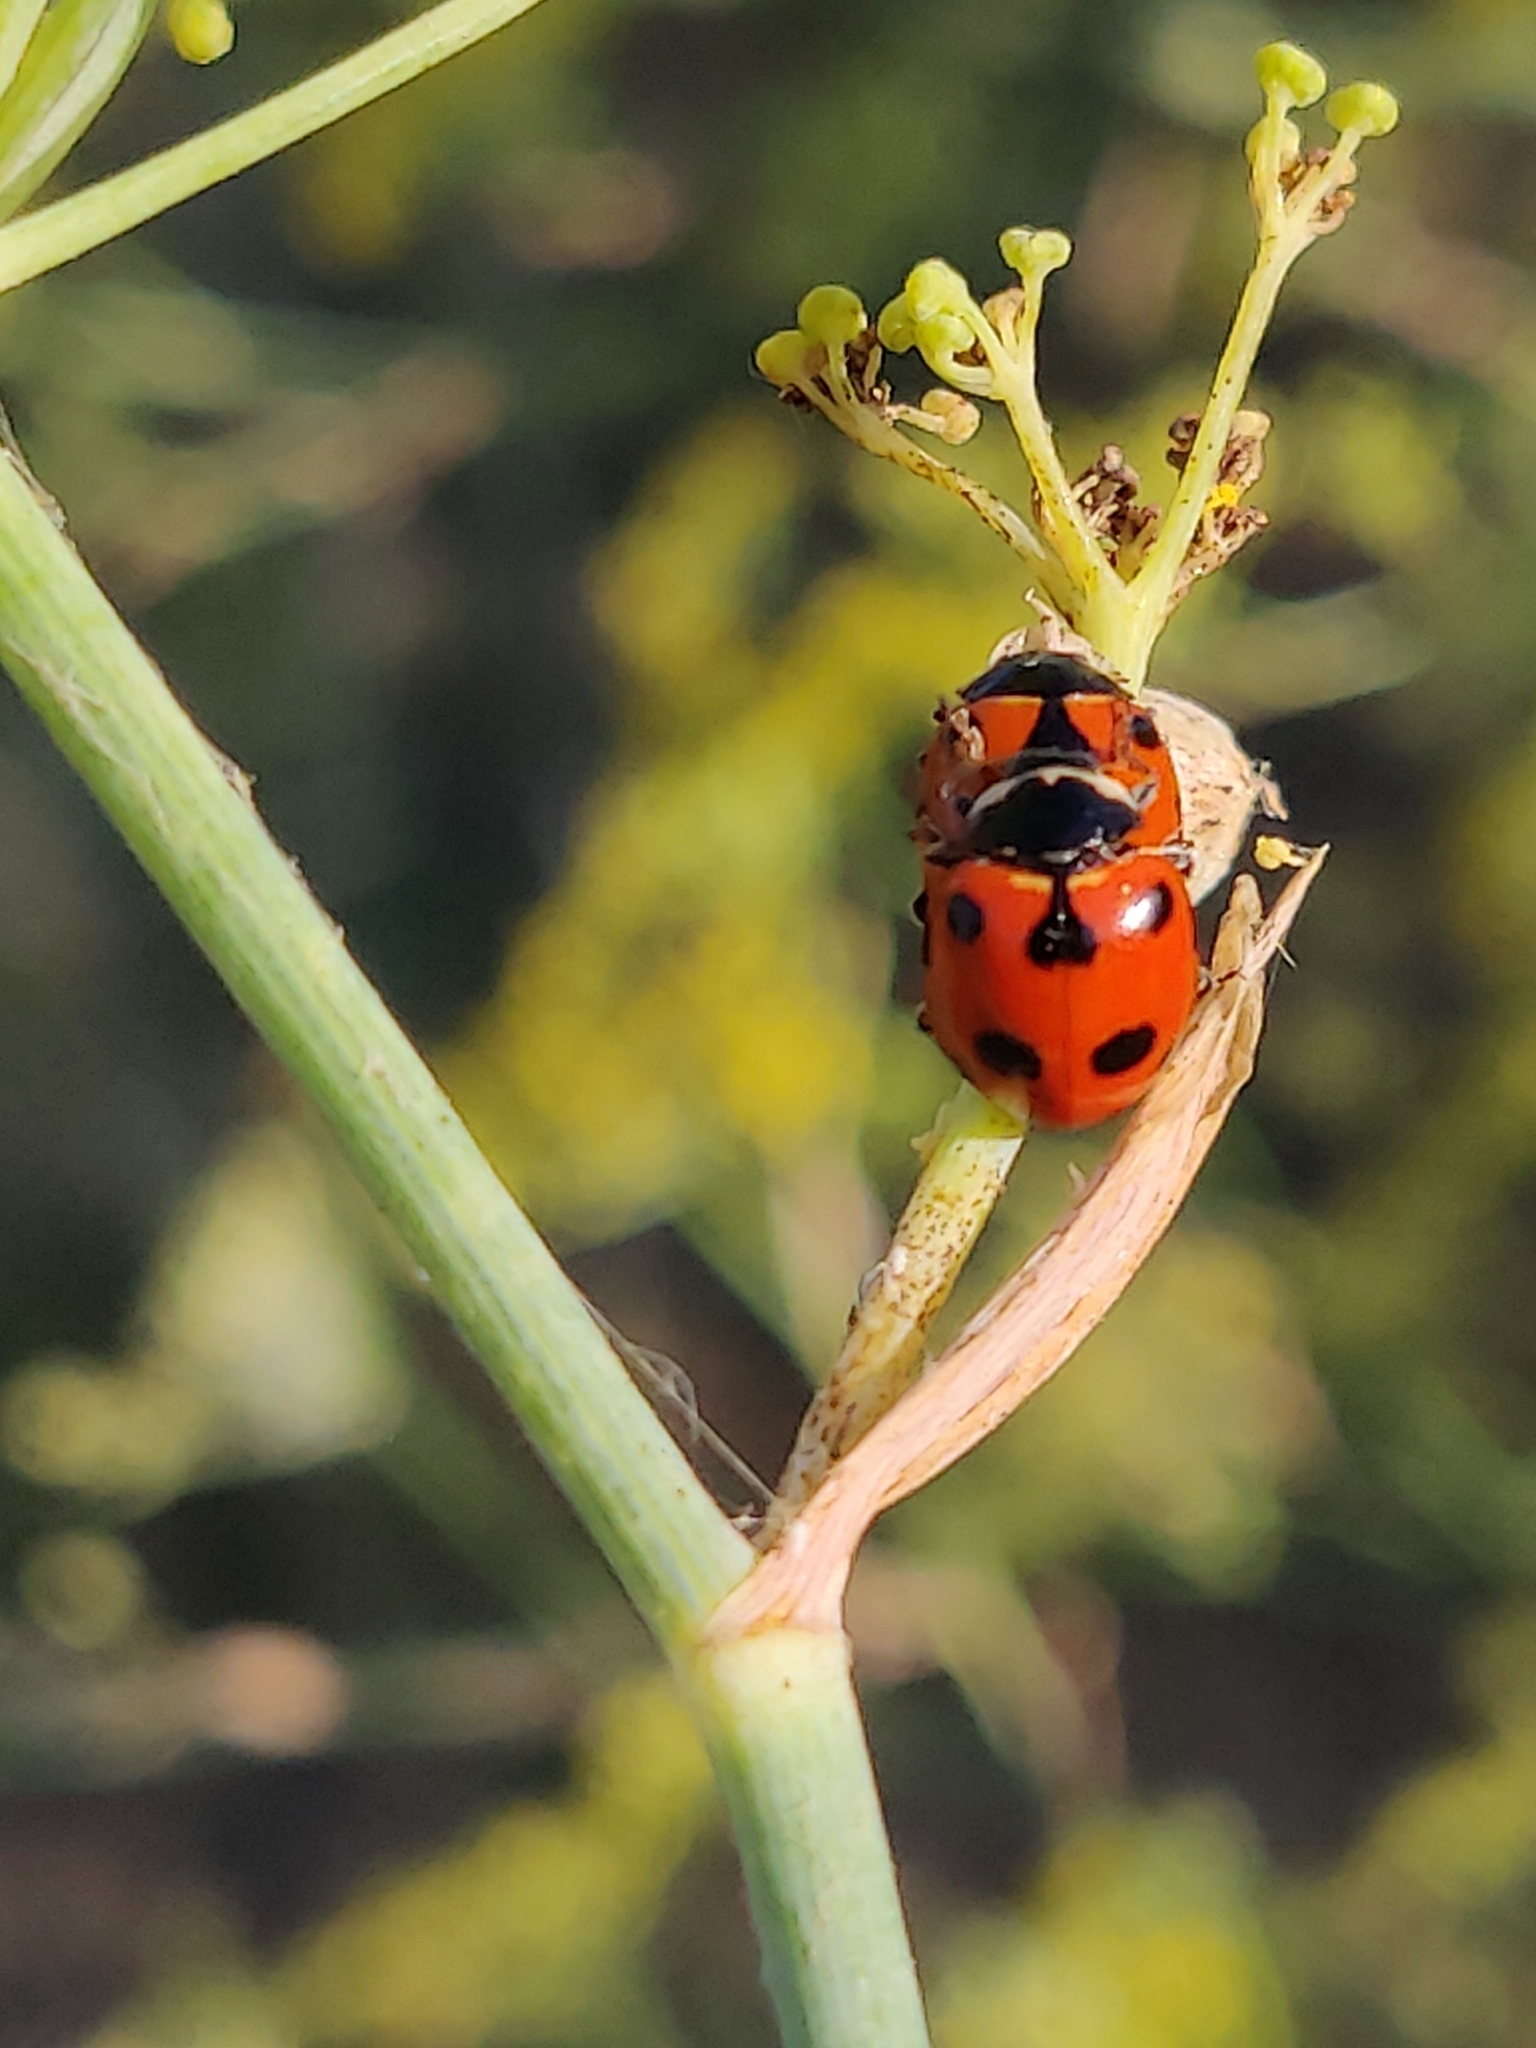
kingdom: Animalia
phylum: Arthropoda
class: Insecta
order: Coleoptera
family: Coccinellidae
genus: Ceratomegilla
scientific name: Ceratomegilla undecimnotata
